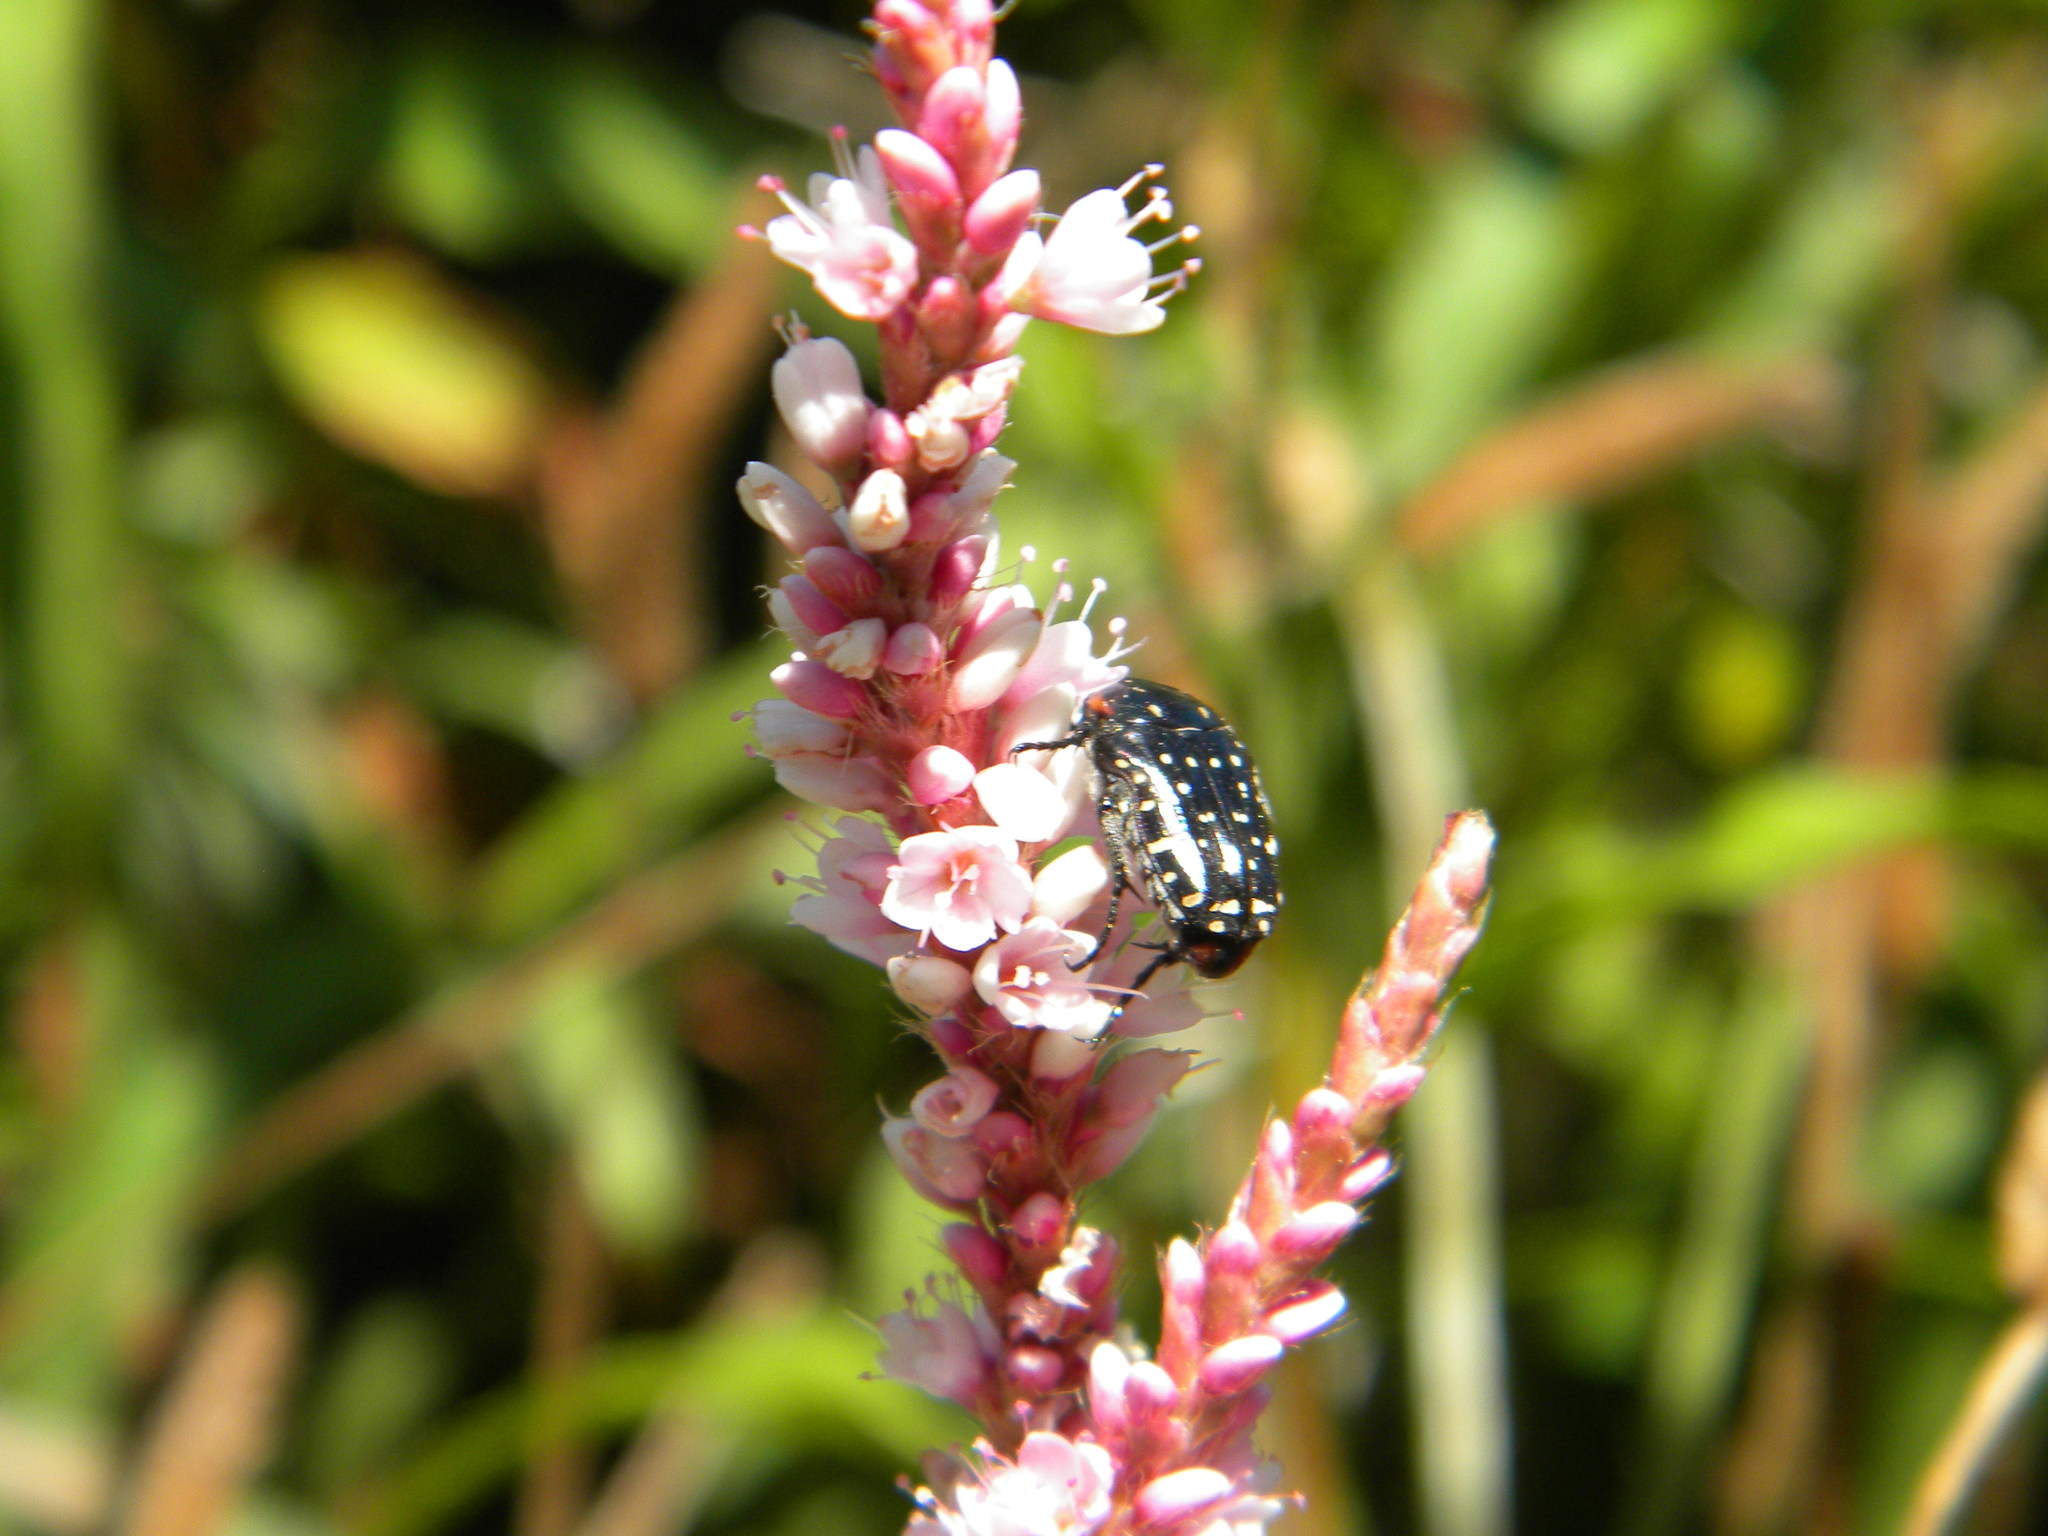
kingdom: Animalia
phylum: Arthropoda
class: Insecta
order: Coleoptera
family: Scarabaeidae
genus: Oxythyrea
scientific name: Oxythyrea
